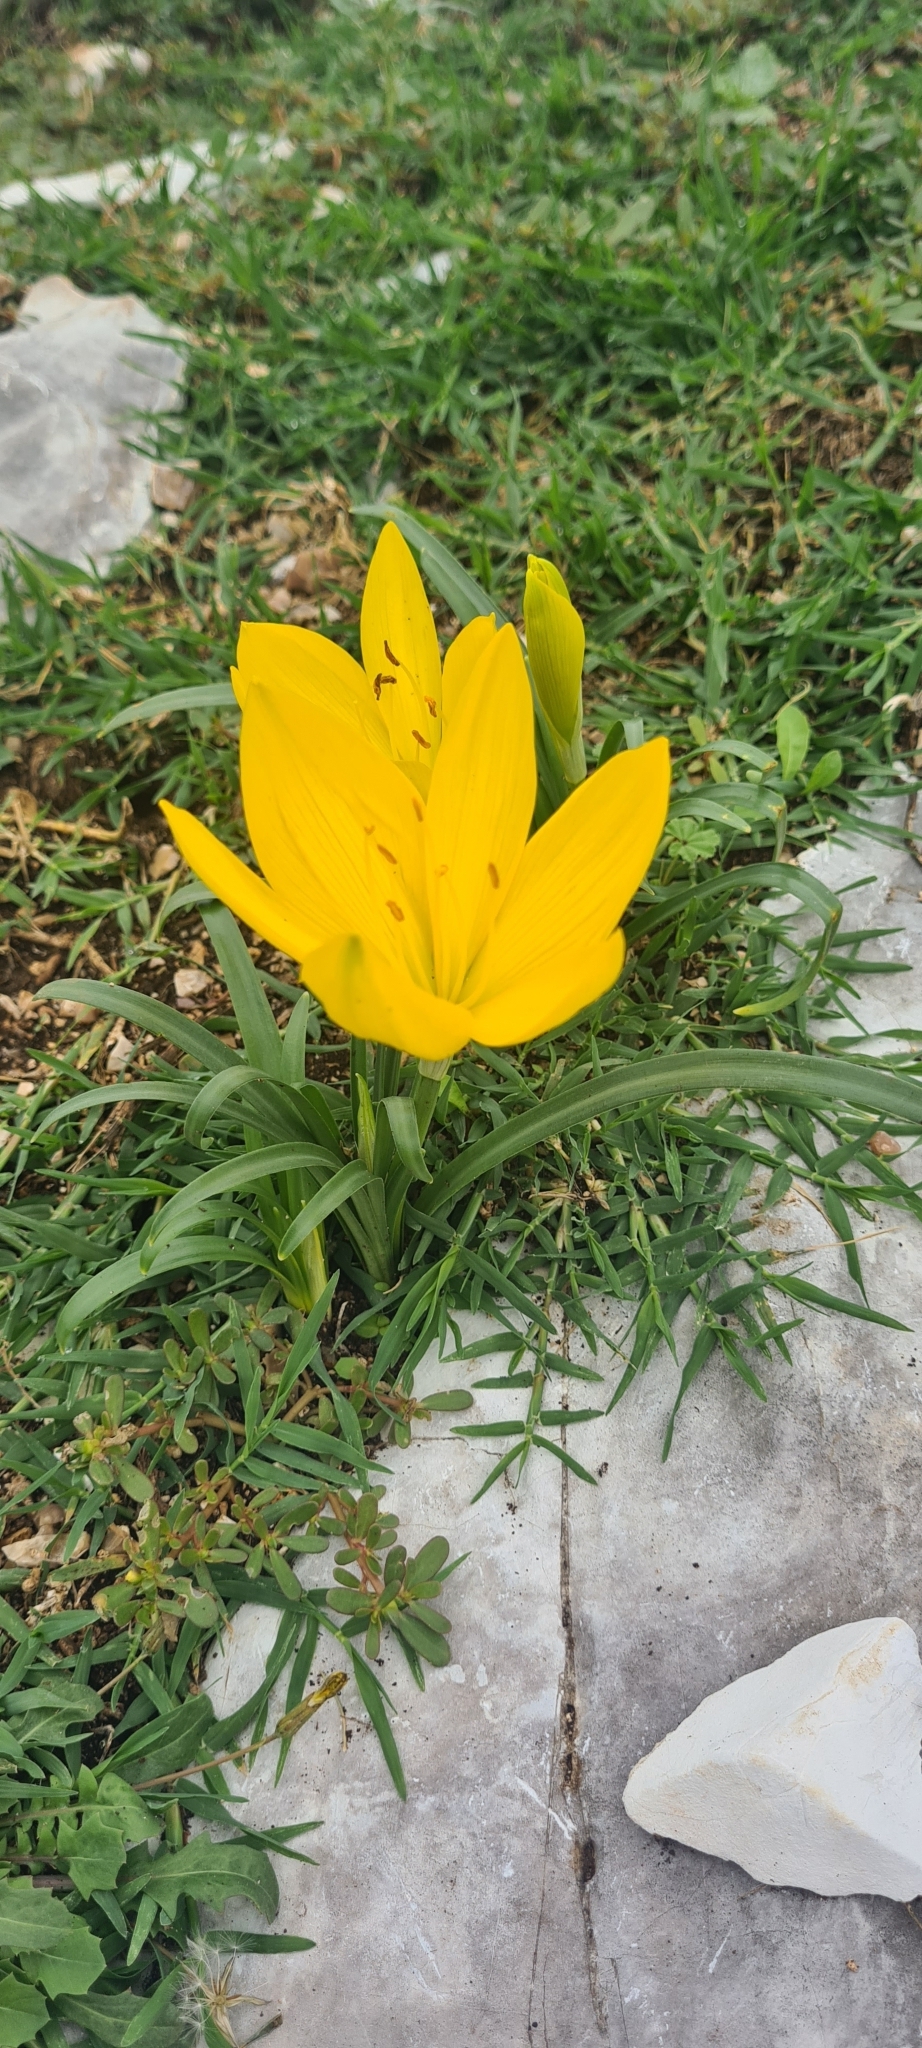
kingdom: Plantae
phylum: Tracheophyta
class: Liliopsida
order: Asparagales
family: Amaryllidaceae
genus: Sternbergia
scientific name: Sternbergia lutea
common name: Winter daffodil
